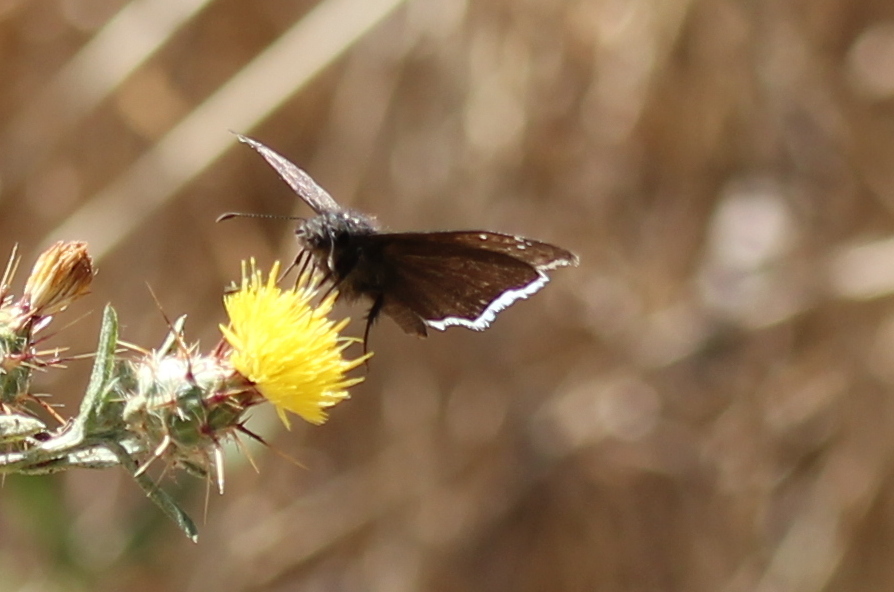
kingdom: Animalia
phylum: Arthropoda
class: Insecta
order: Lepidoptera
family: Hesperiidae
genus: Erynnis
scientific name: Erynnis funeralis
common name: Funereal duskywing
